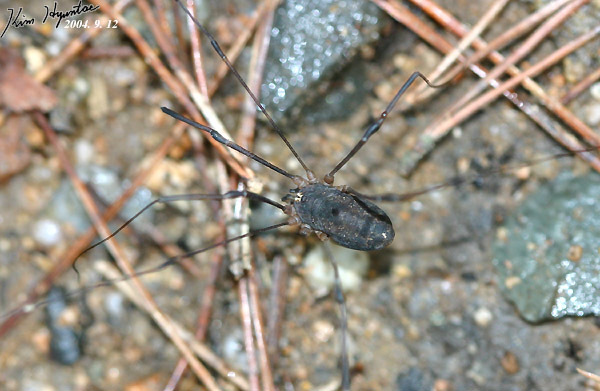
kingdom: Animalia
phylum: Arthropoda
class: Arachnida
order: Opiliones
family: Sclerosomatidae
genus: Thunbergia
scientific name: Thunbergia grandis
